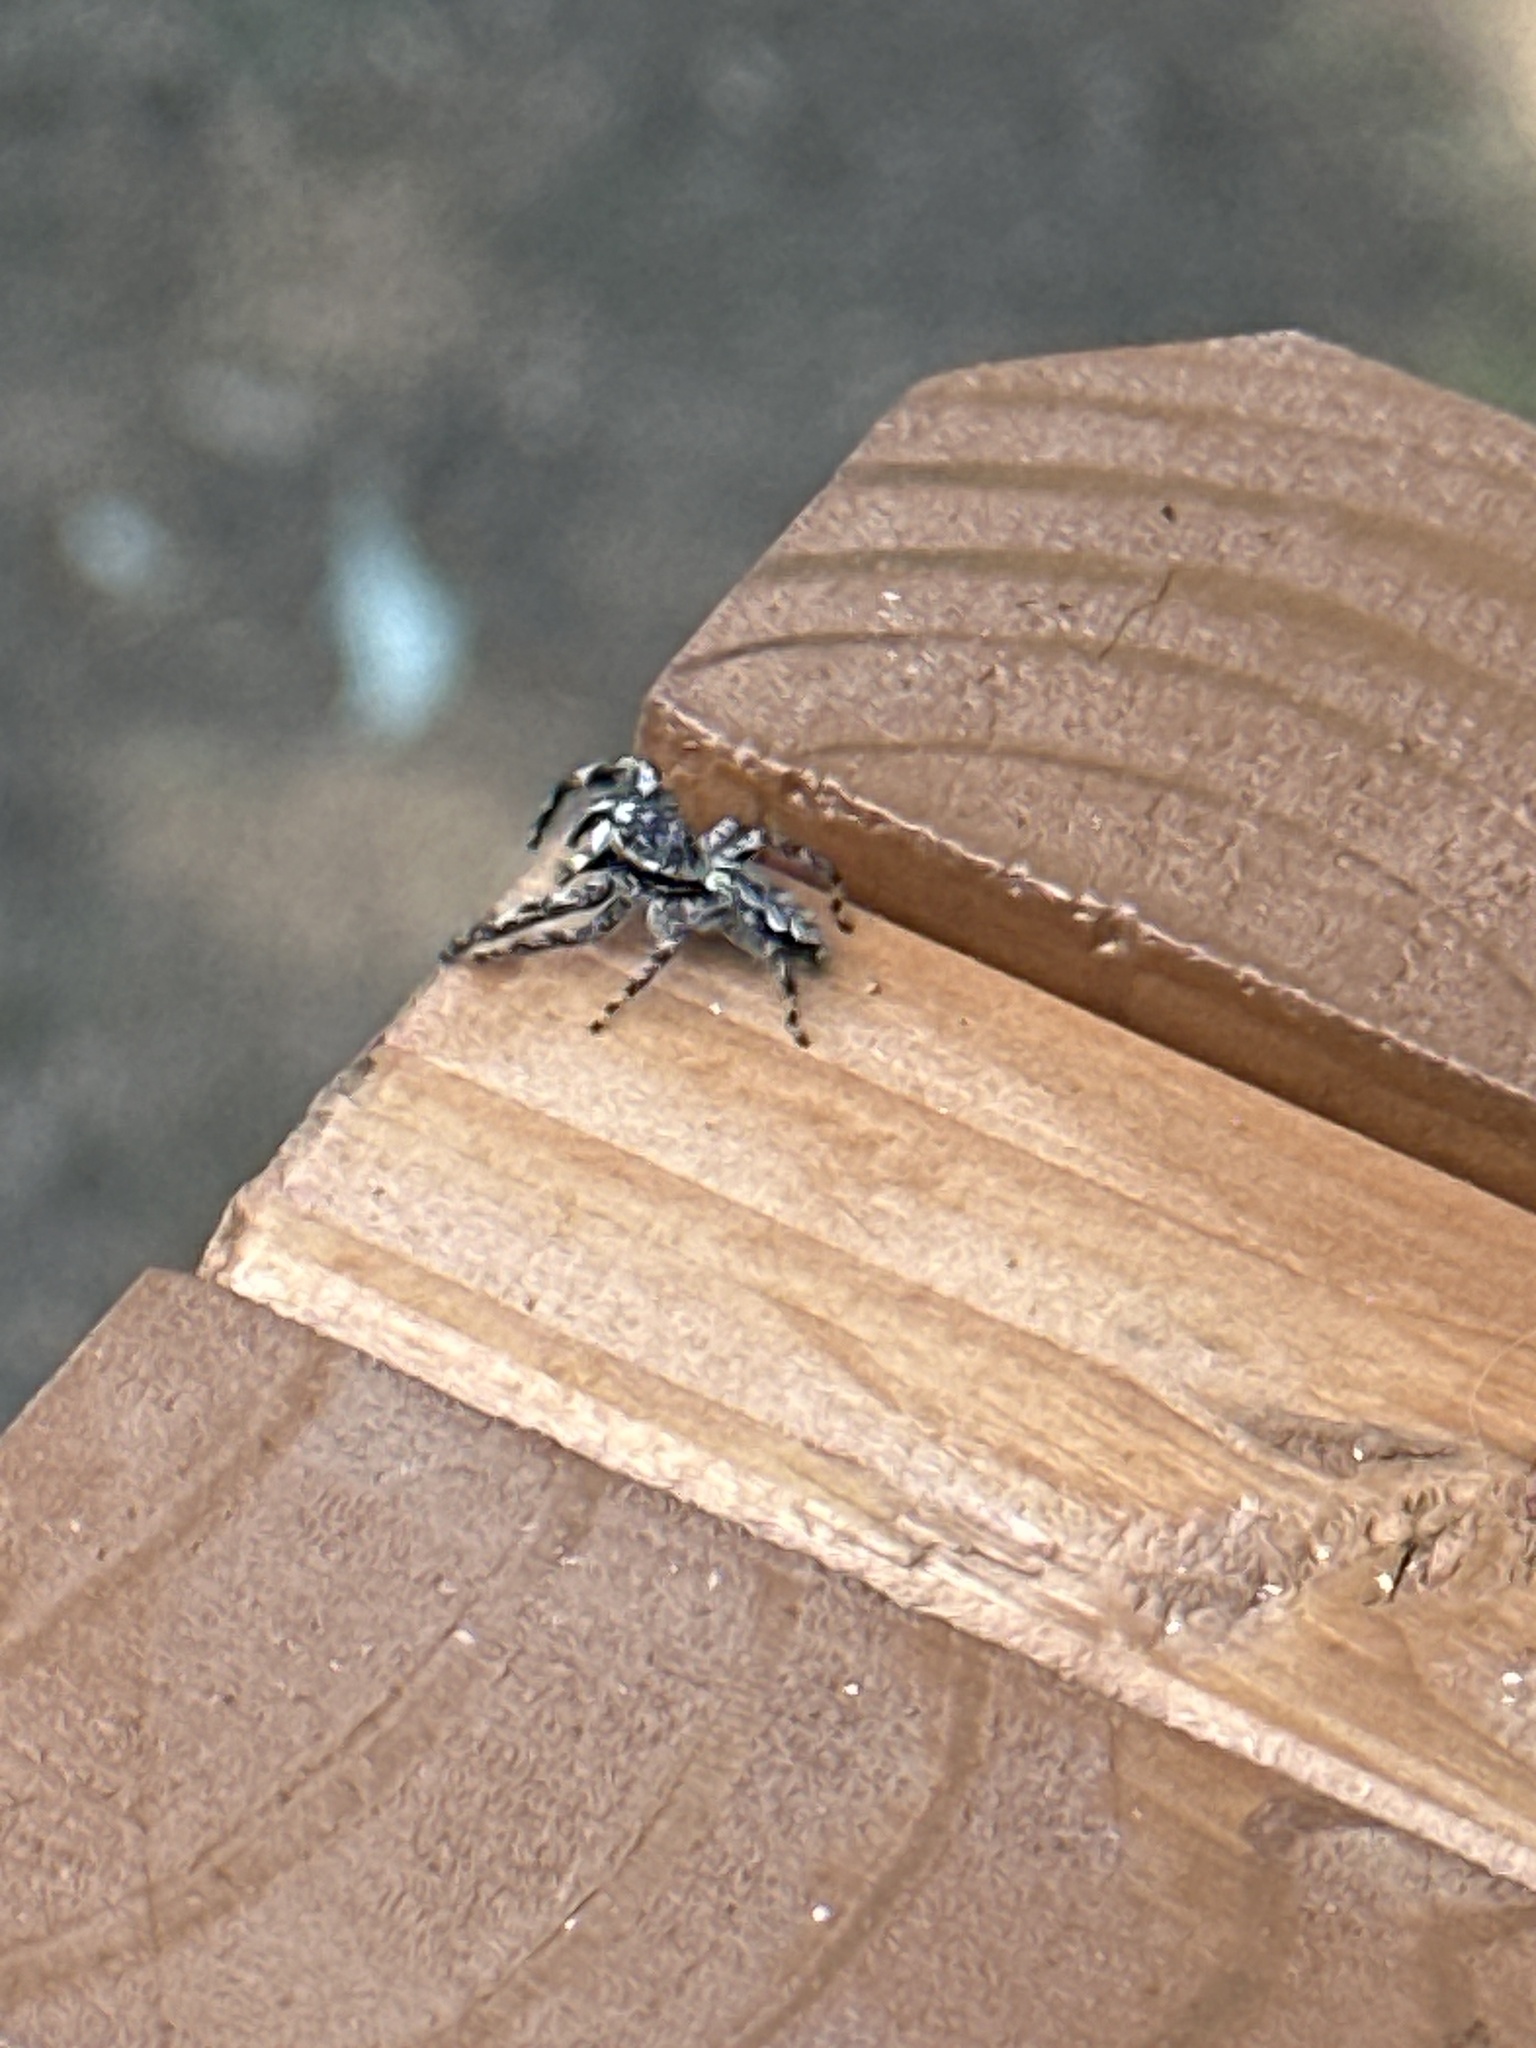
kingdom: Animalia
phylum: Arthropoda
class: Arachnida
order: Araneae
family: Salticidae
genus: Platycryptus
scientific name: Platycryptus undatus
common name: Tan jumping spider
